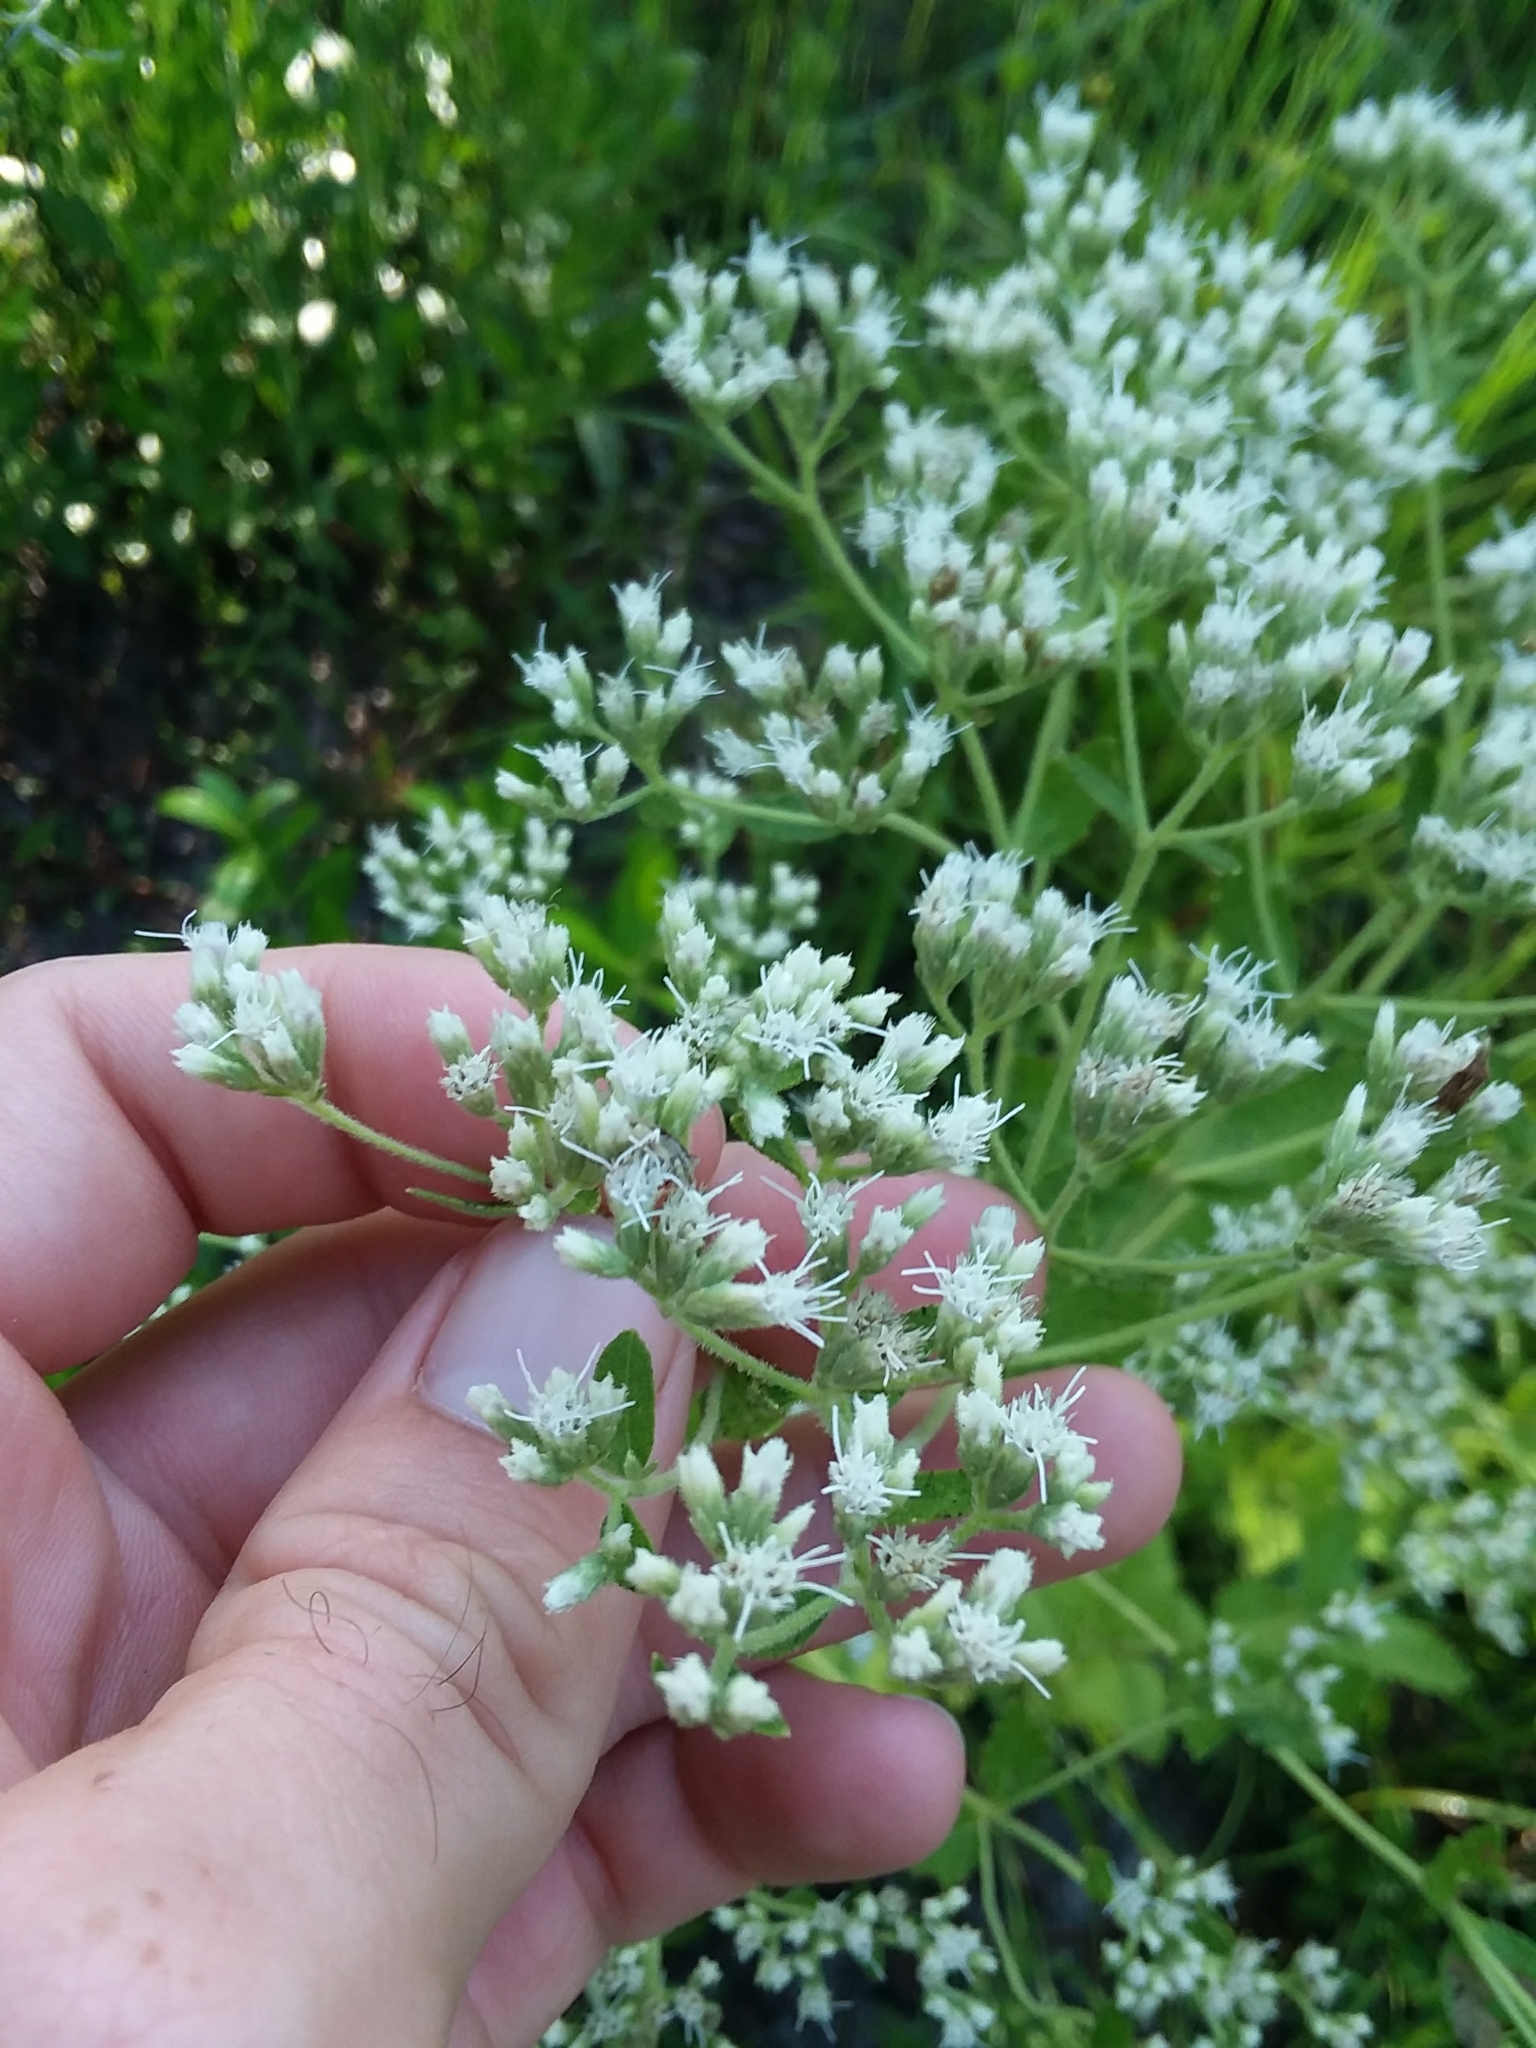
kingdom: Plantae
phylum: Tracheophyta
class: Magnoliopsida
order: Asterales
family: Asteraceae
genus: Eupatorium
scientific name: Eupatorium rotundifolium
